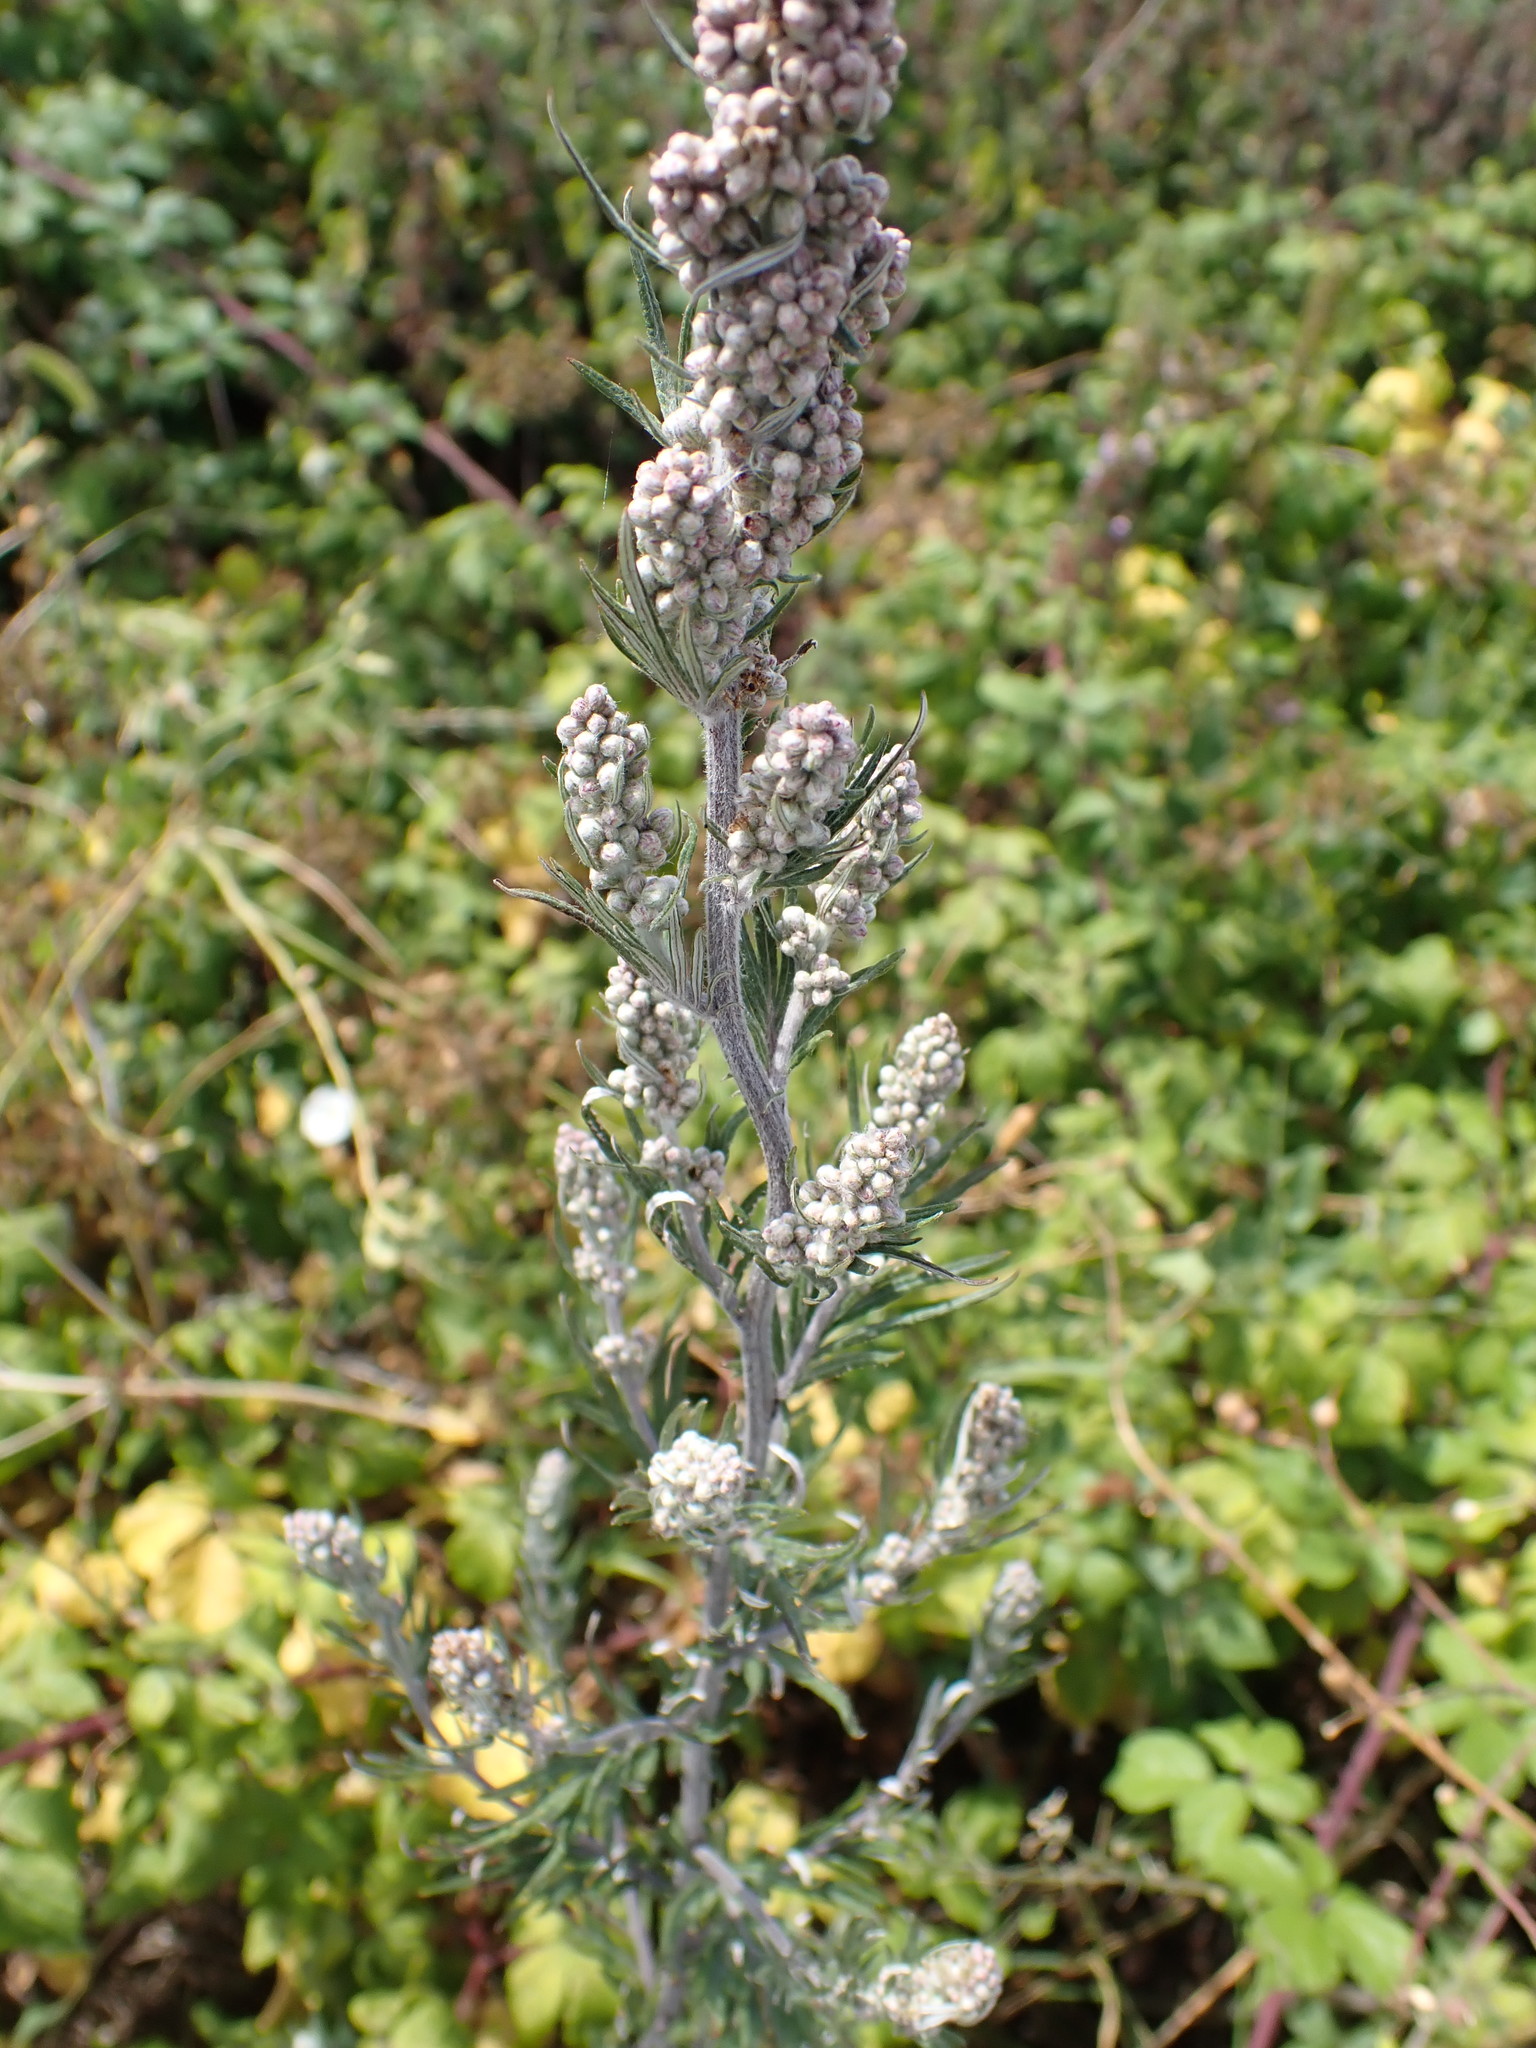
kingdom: Plantae
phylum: Tracheophyta
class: Magnoliopsida
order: Asterales
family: Asteraceae
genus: Artemisia
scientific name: Artemisia vulgaris
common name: Mugwort
